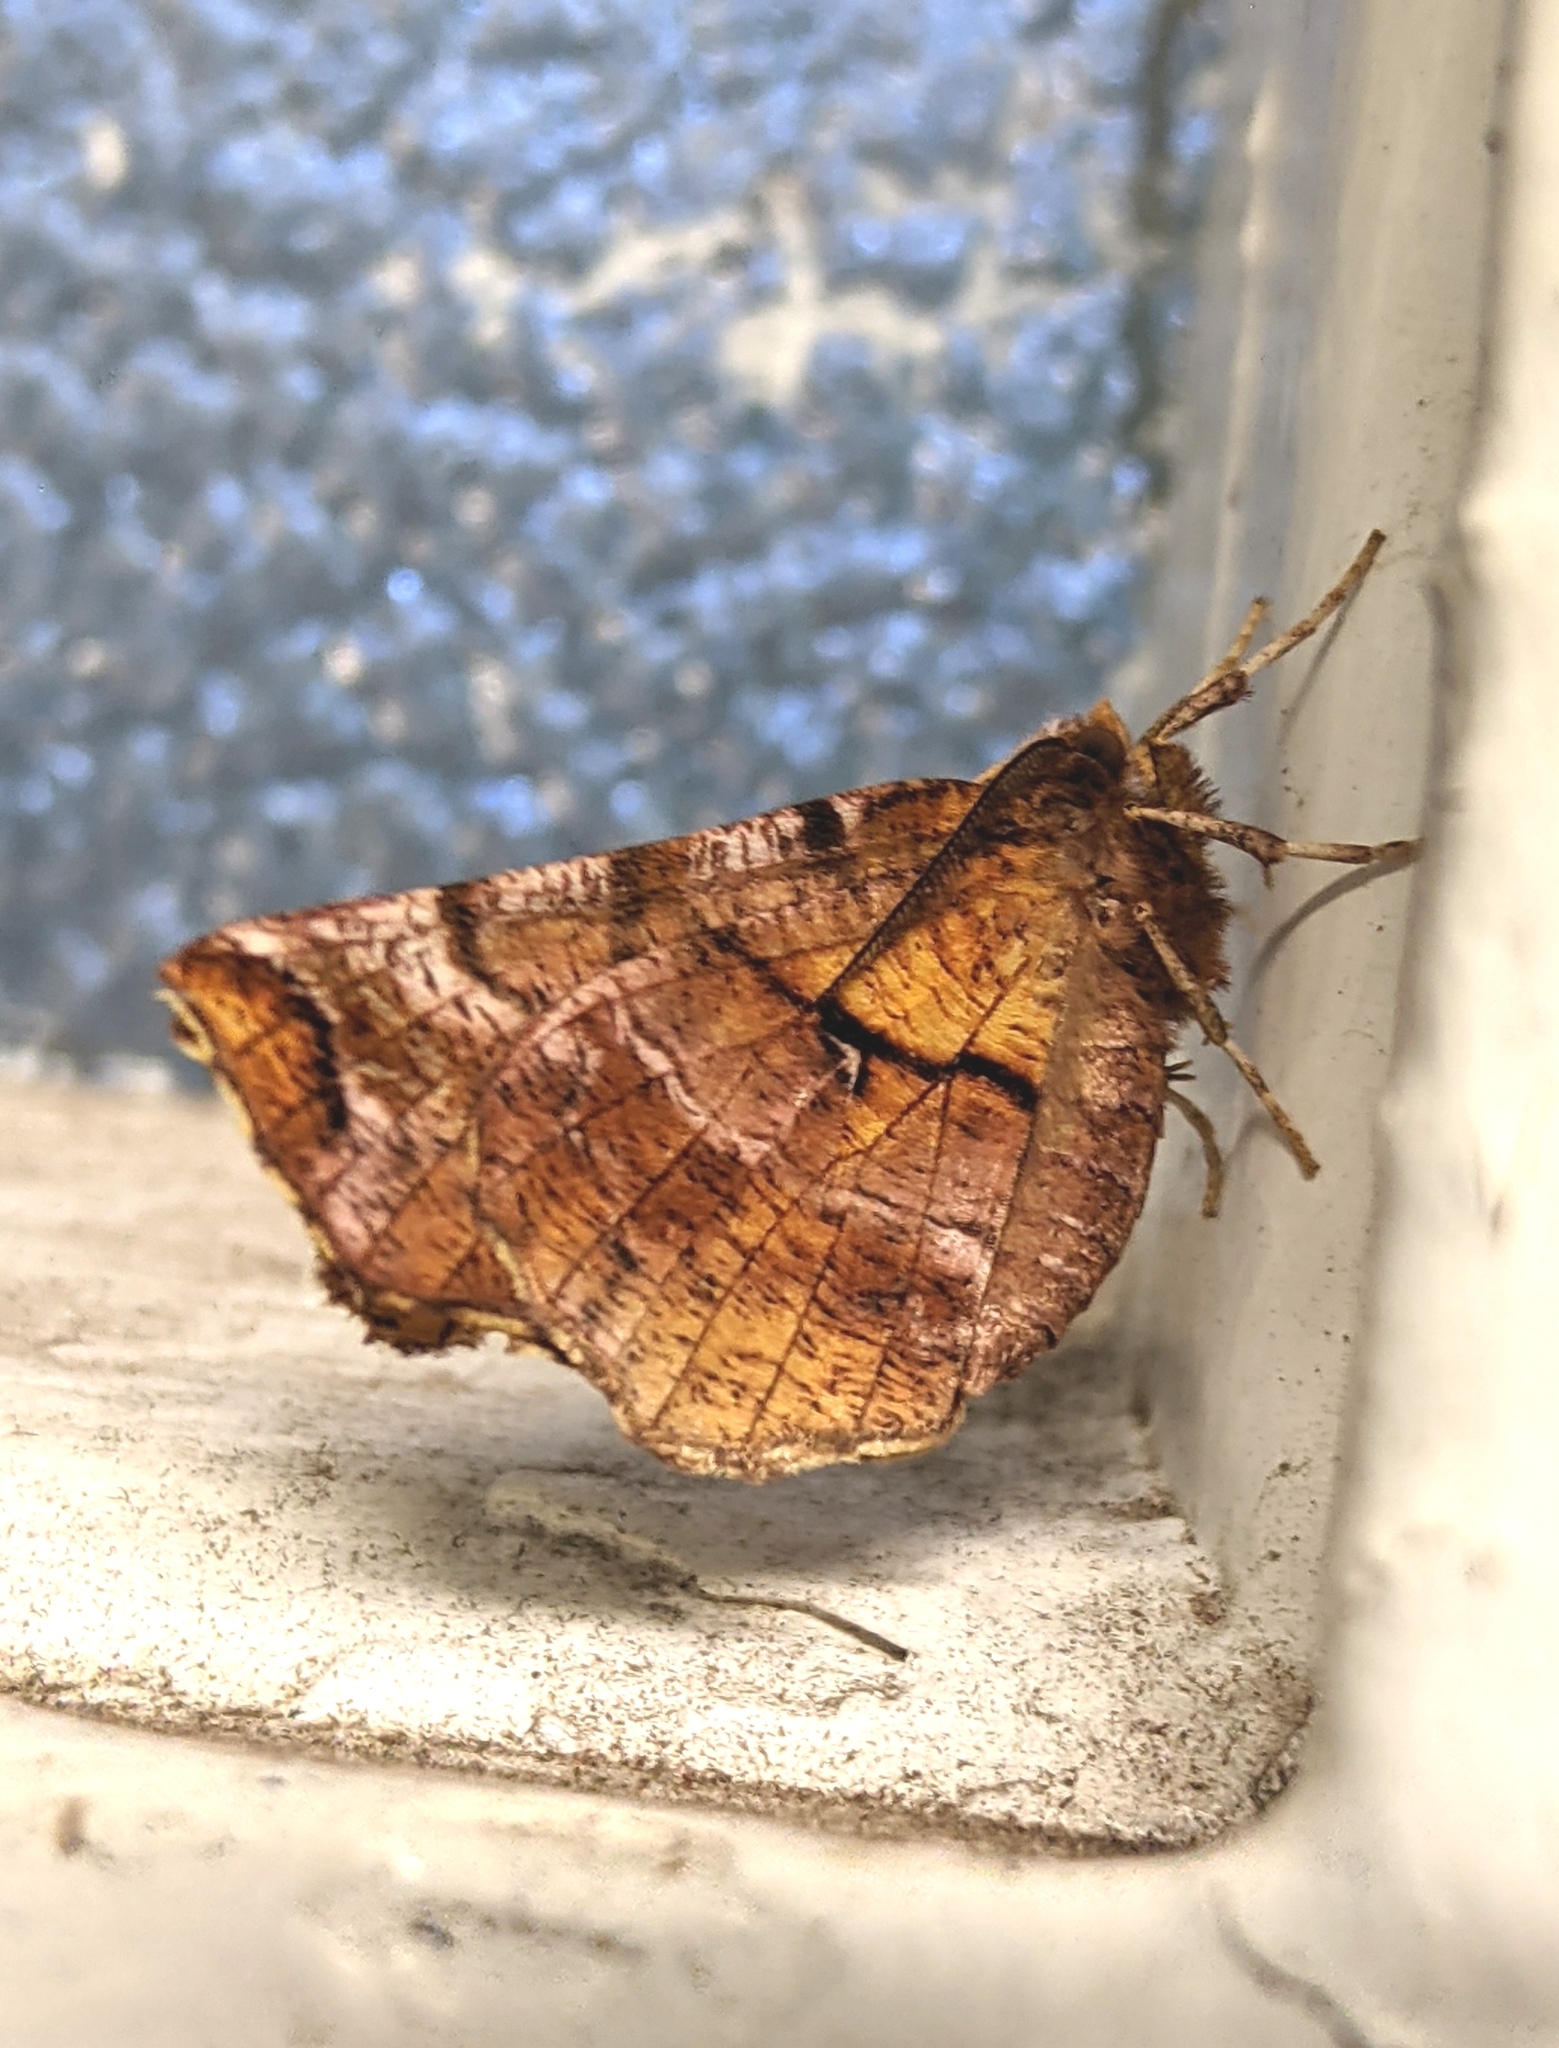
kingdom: Animalia
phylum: Arthropoda
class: Insecta
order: Lepidoptera
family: Geometridae
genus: Selenia
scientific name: Selenia alciphearia
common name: Brown-tipped thorn
